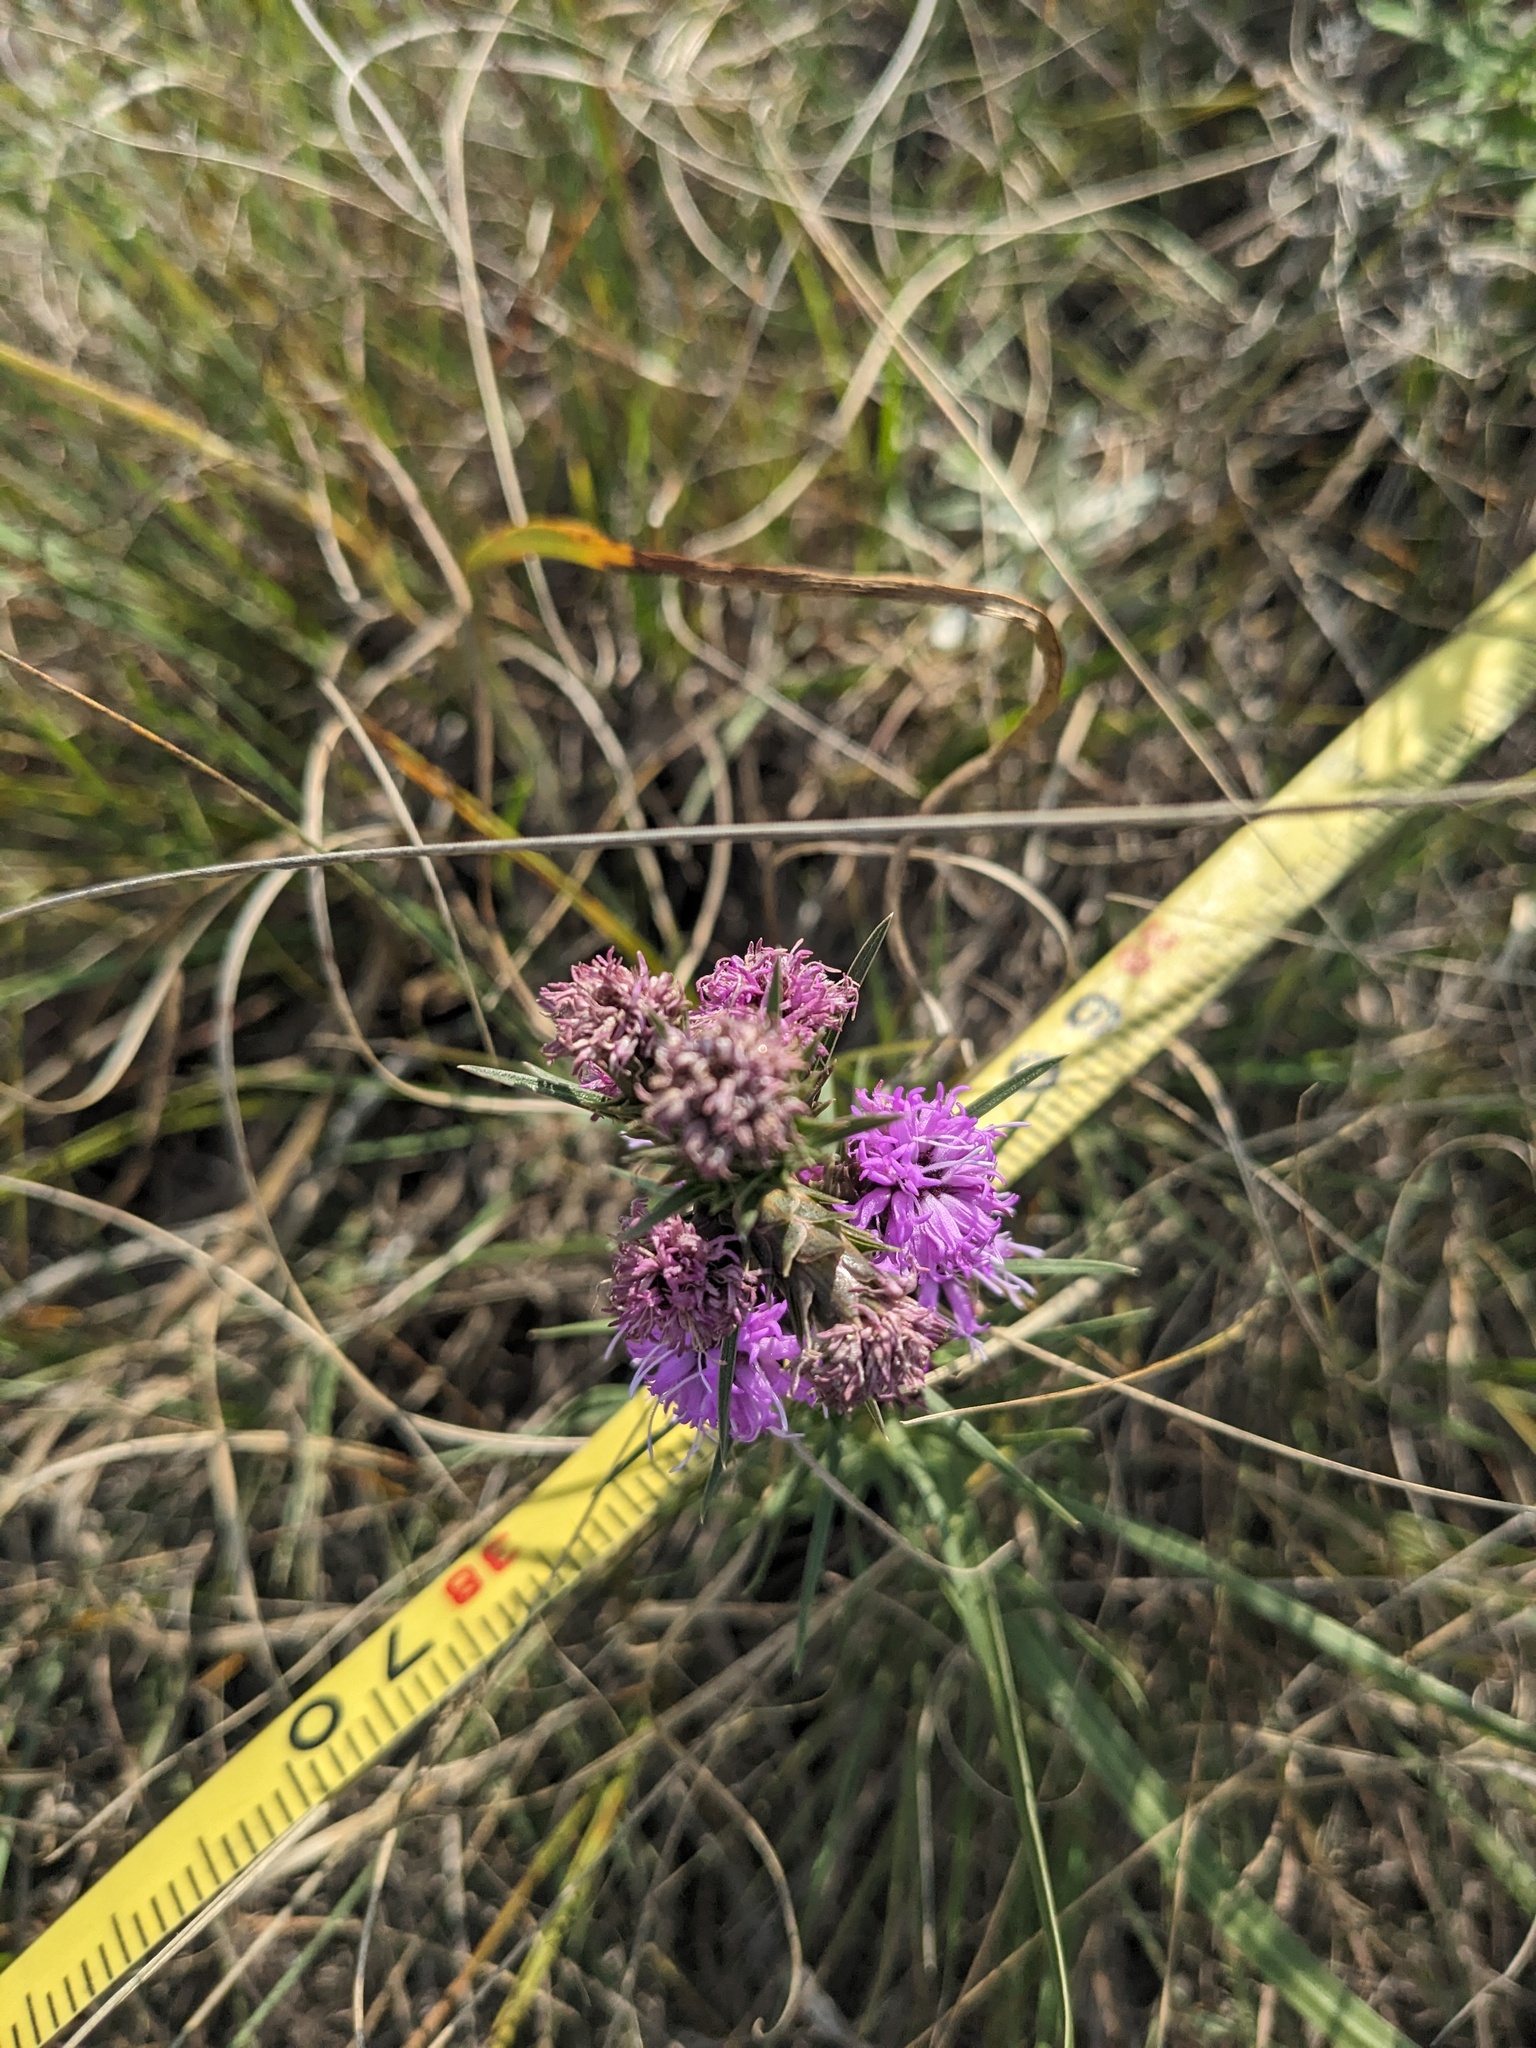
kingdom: Plantae
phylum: Tracheophyta
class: Magnoliopsida
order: Asterales
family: Asteraceae
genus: Liatris
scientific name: Liatris squarrosa
